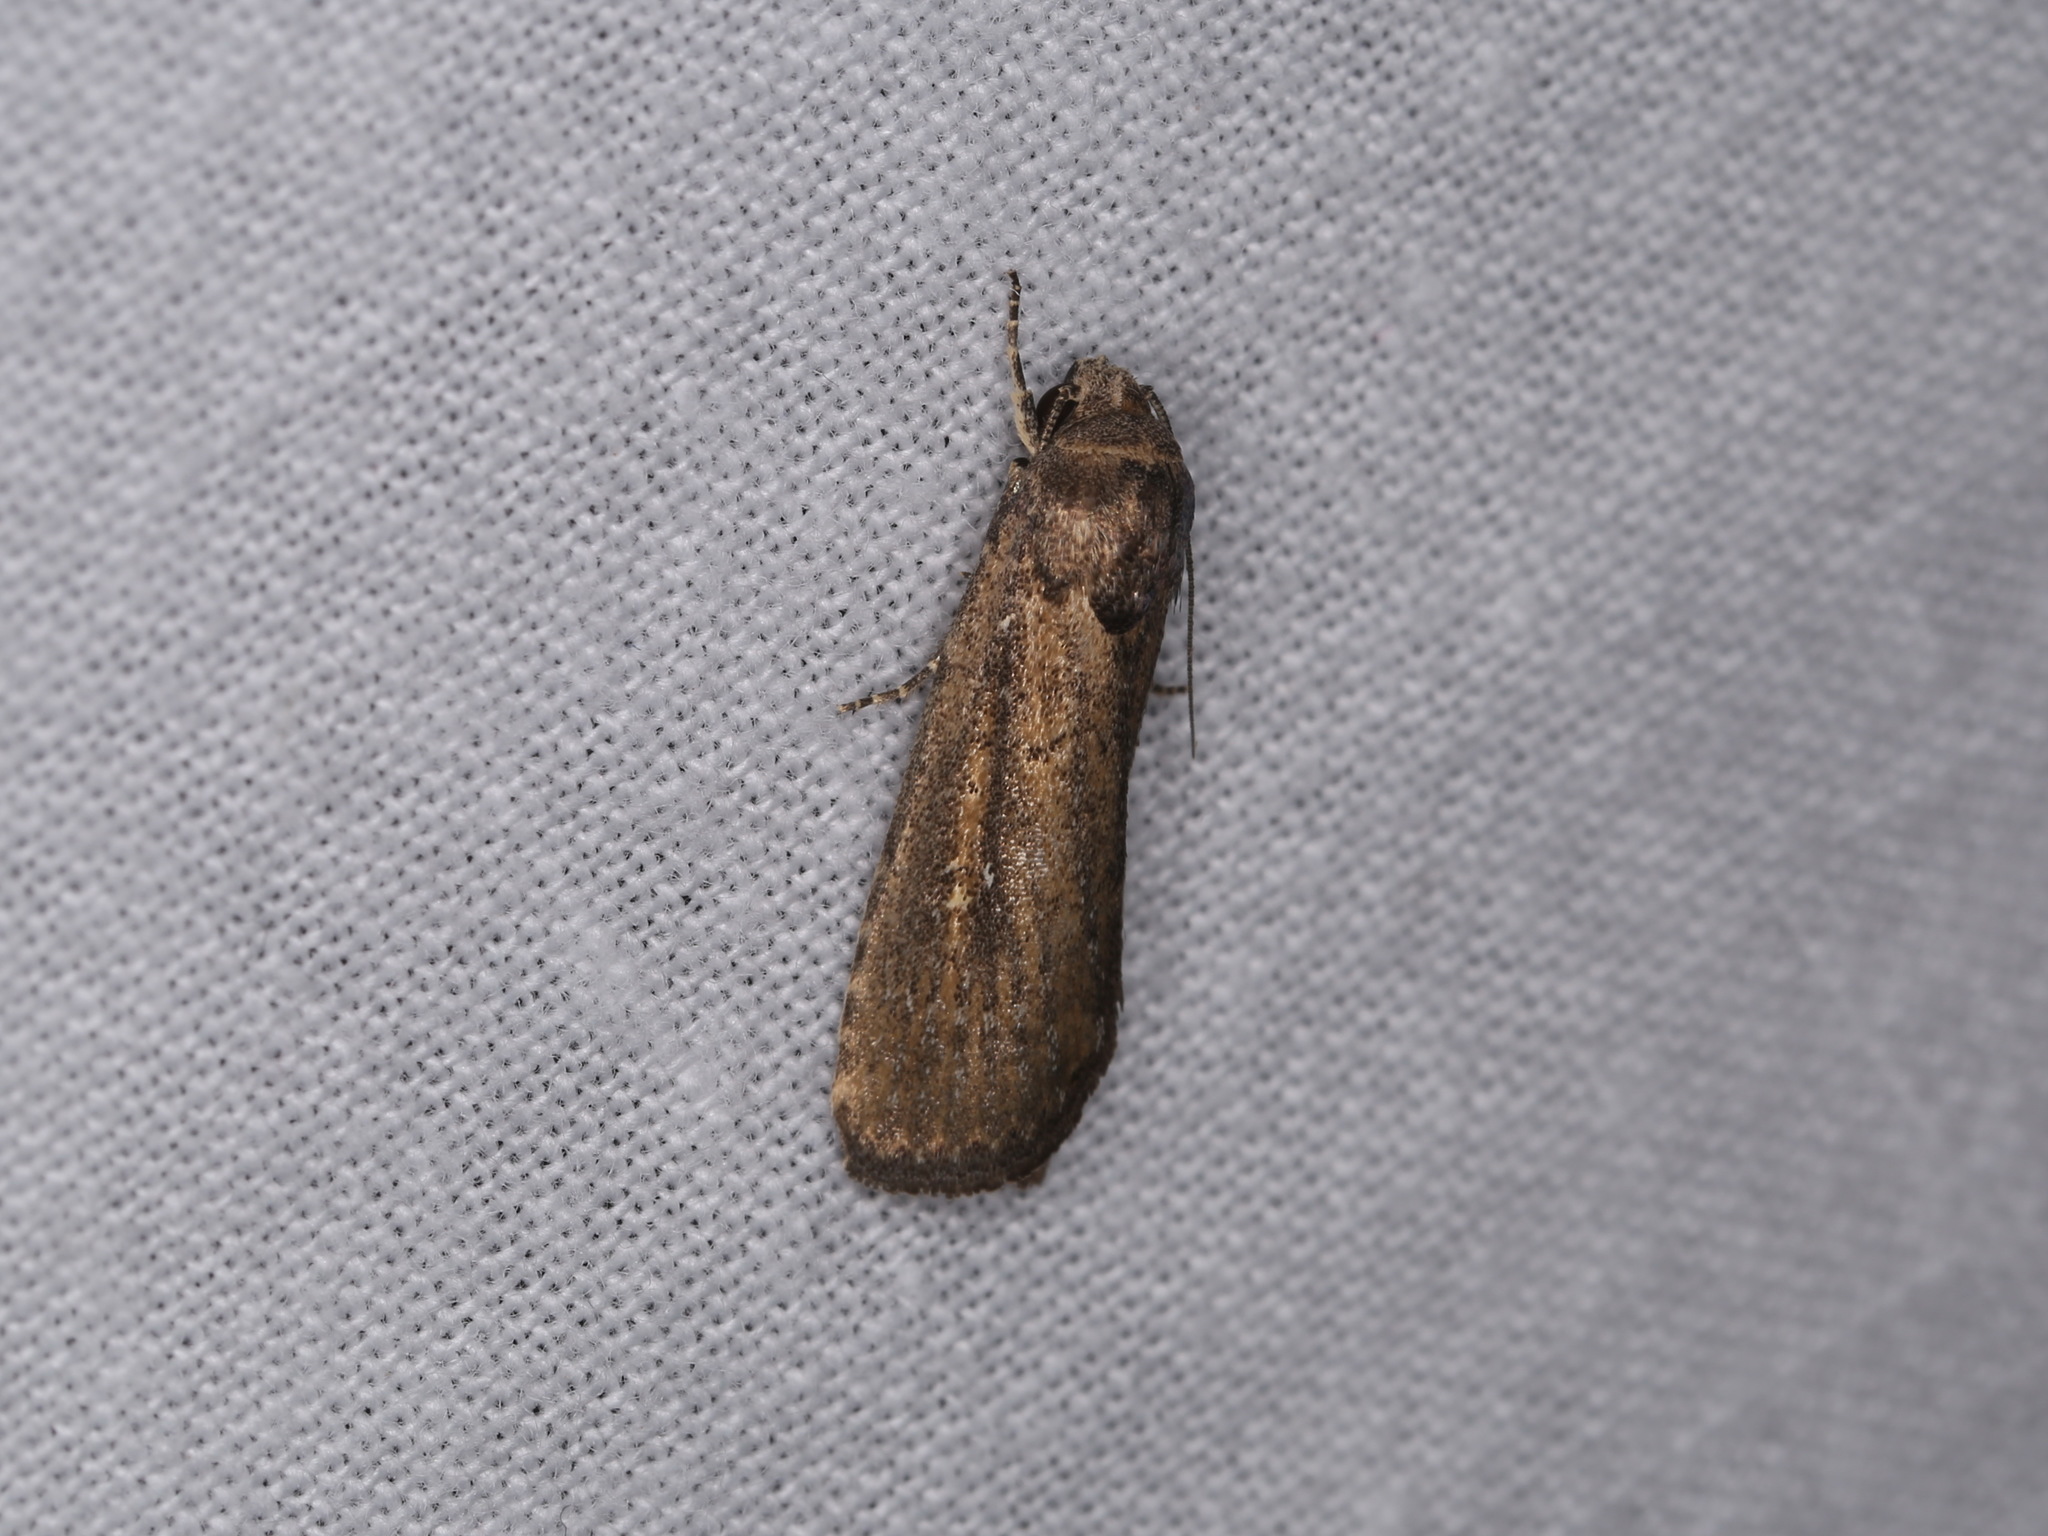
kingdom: Animalia
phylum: Arthropoda
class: Insecta
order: Lepidoptera
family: Noctuidae
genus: Athetis
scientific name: Athetis tenuis
